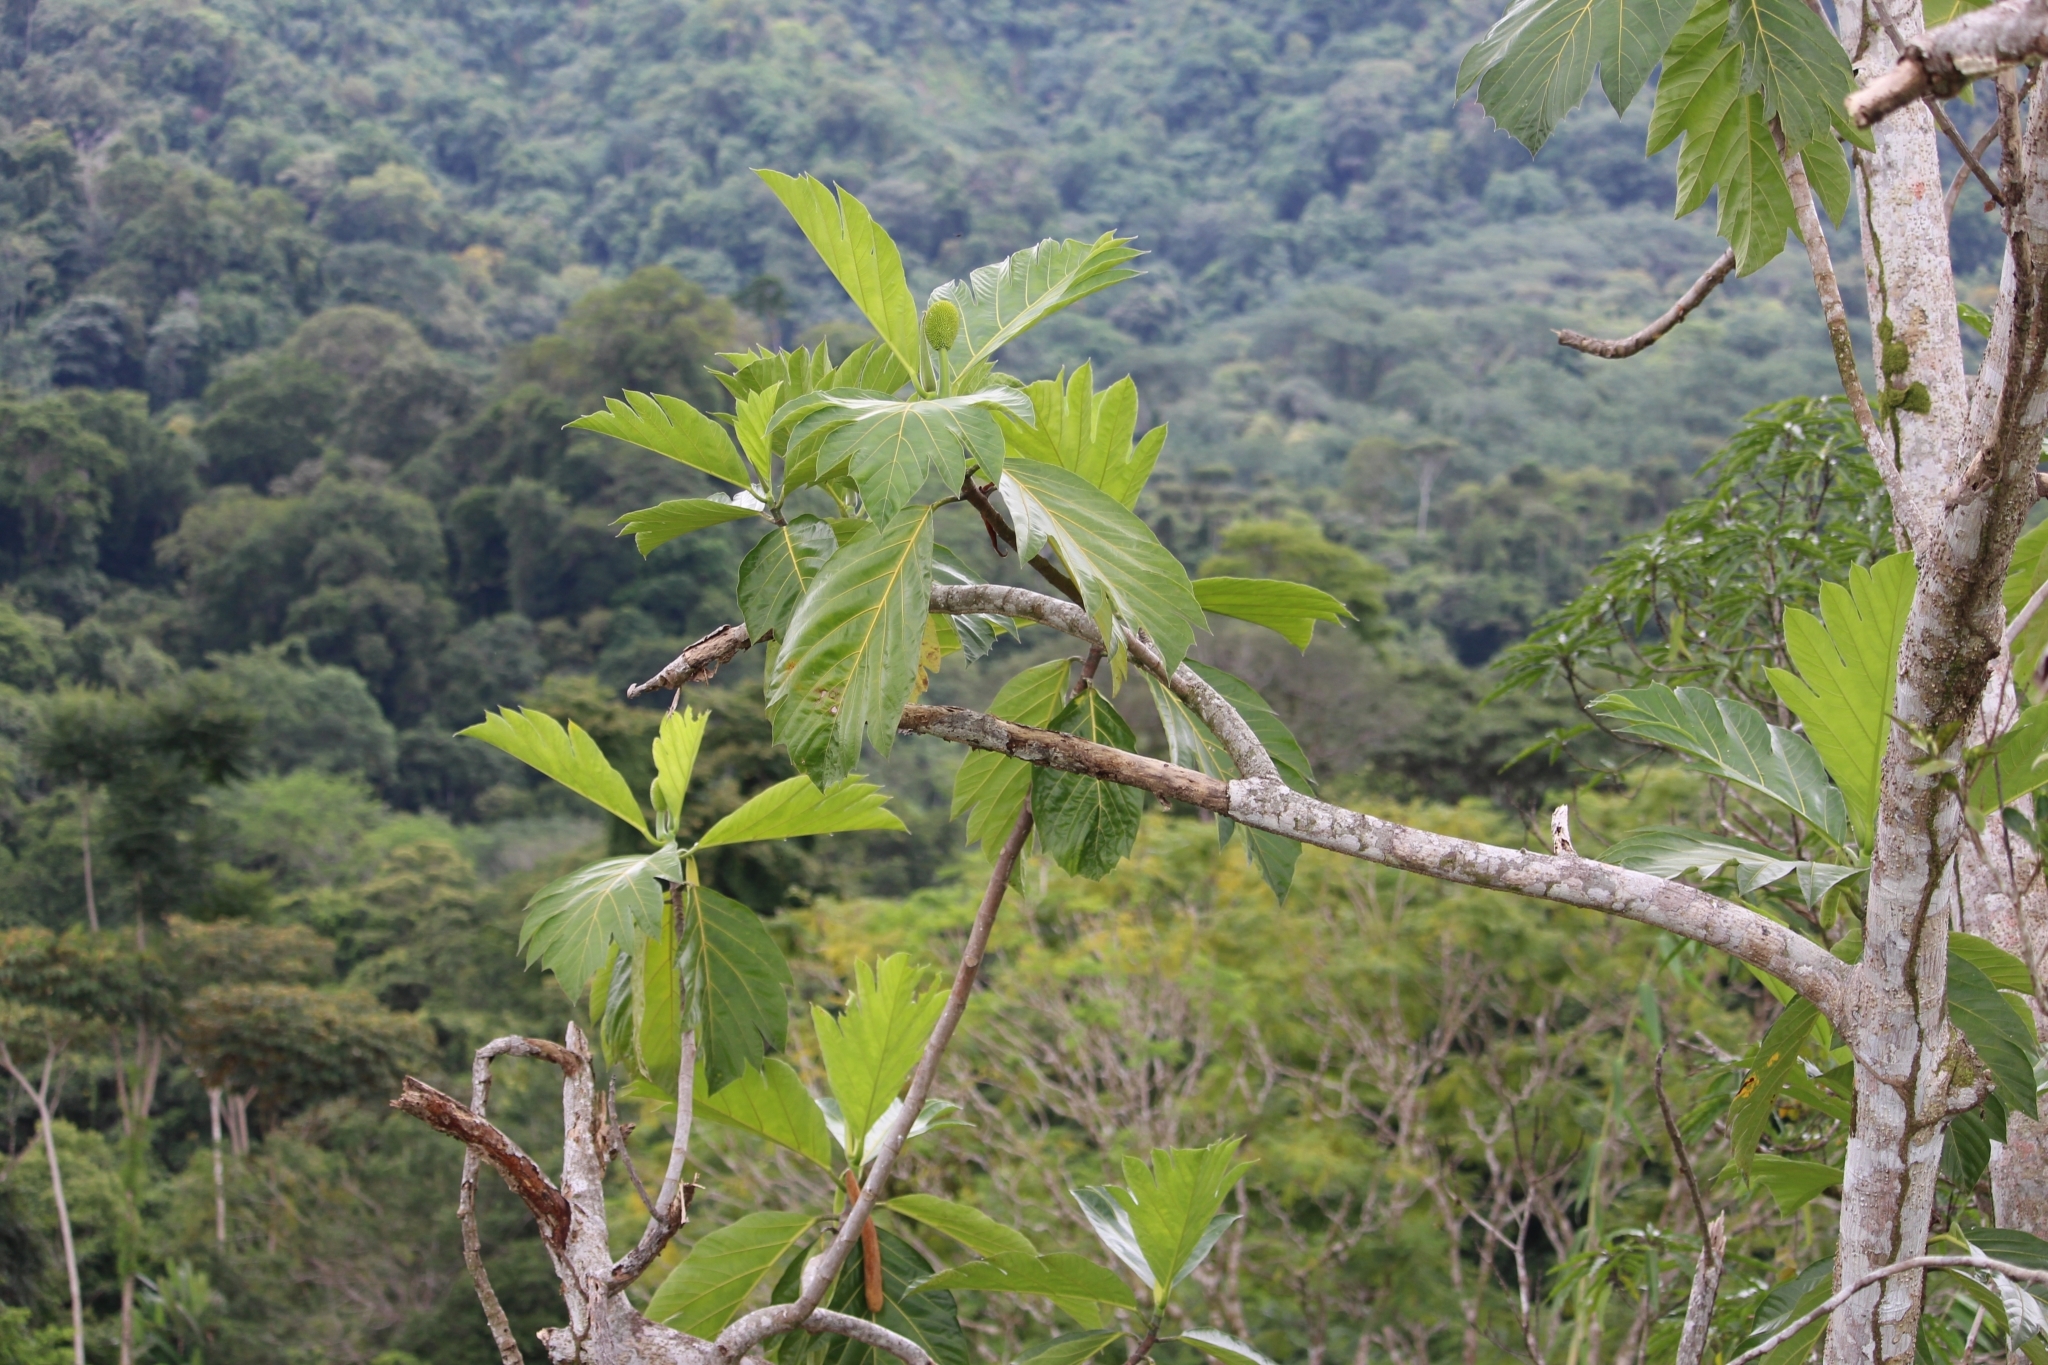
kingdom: Plantae
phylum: Tracheophyta
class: Magnoliopsida
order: Rosales
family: Moraceae
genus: Artocarpus
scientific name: Artocarpus altilis
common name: Breadfruit
